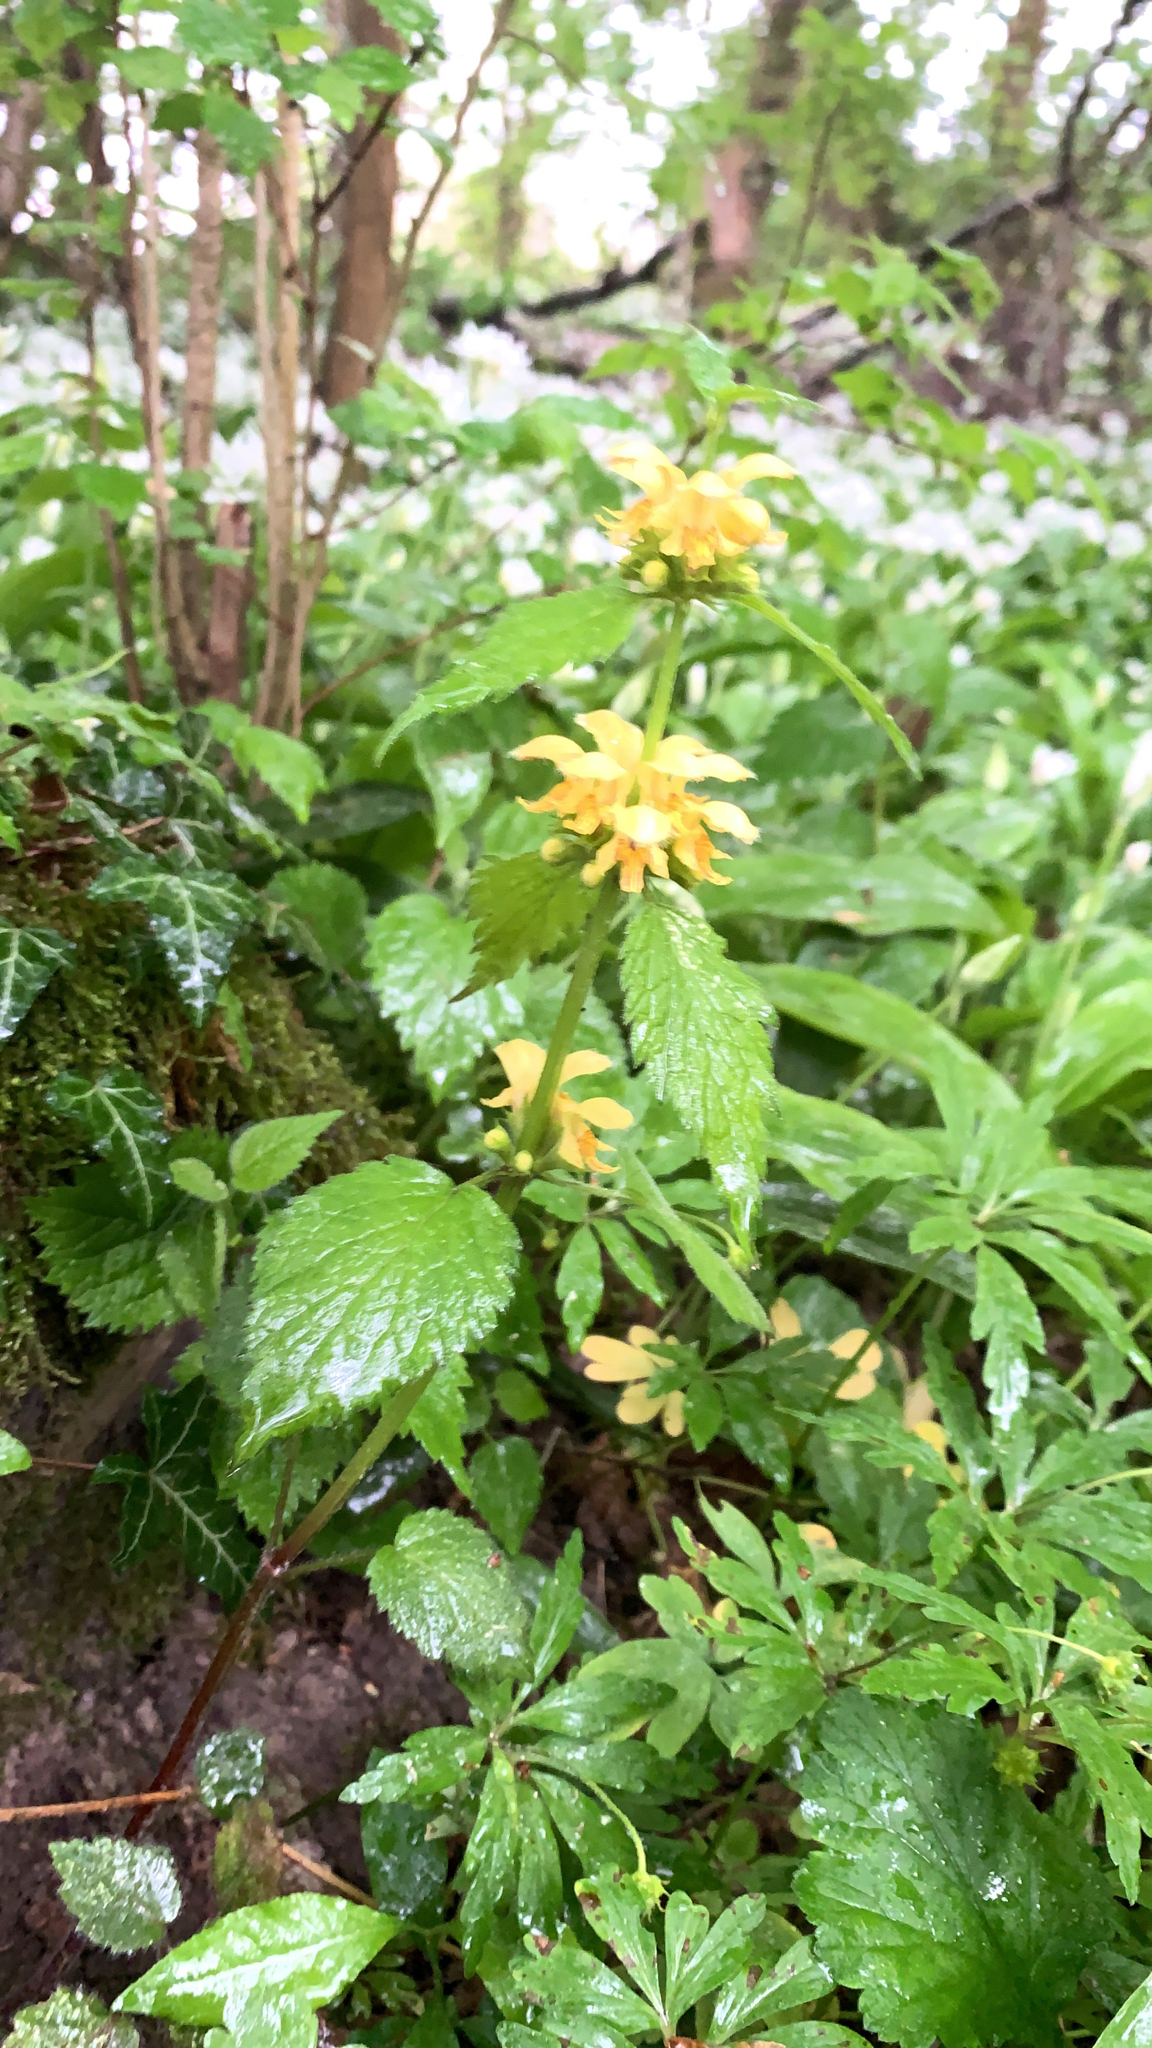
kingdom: Plantae
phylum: Tracheophyta
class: Magnoliopsida
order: Lamiales
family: Lamiaceae
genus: Lamium
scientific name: Lamium galeobdolon
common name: Yellow archangel
